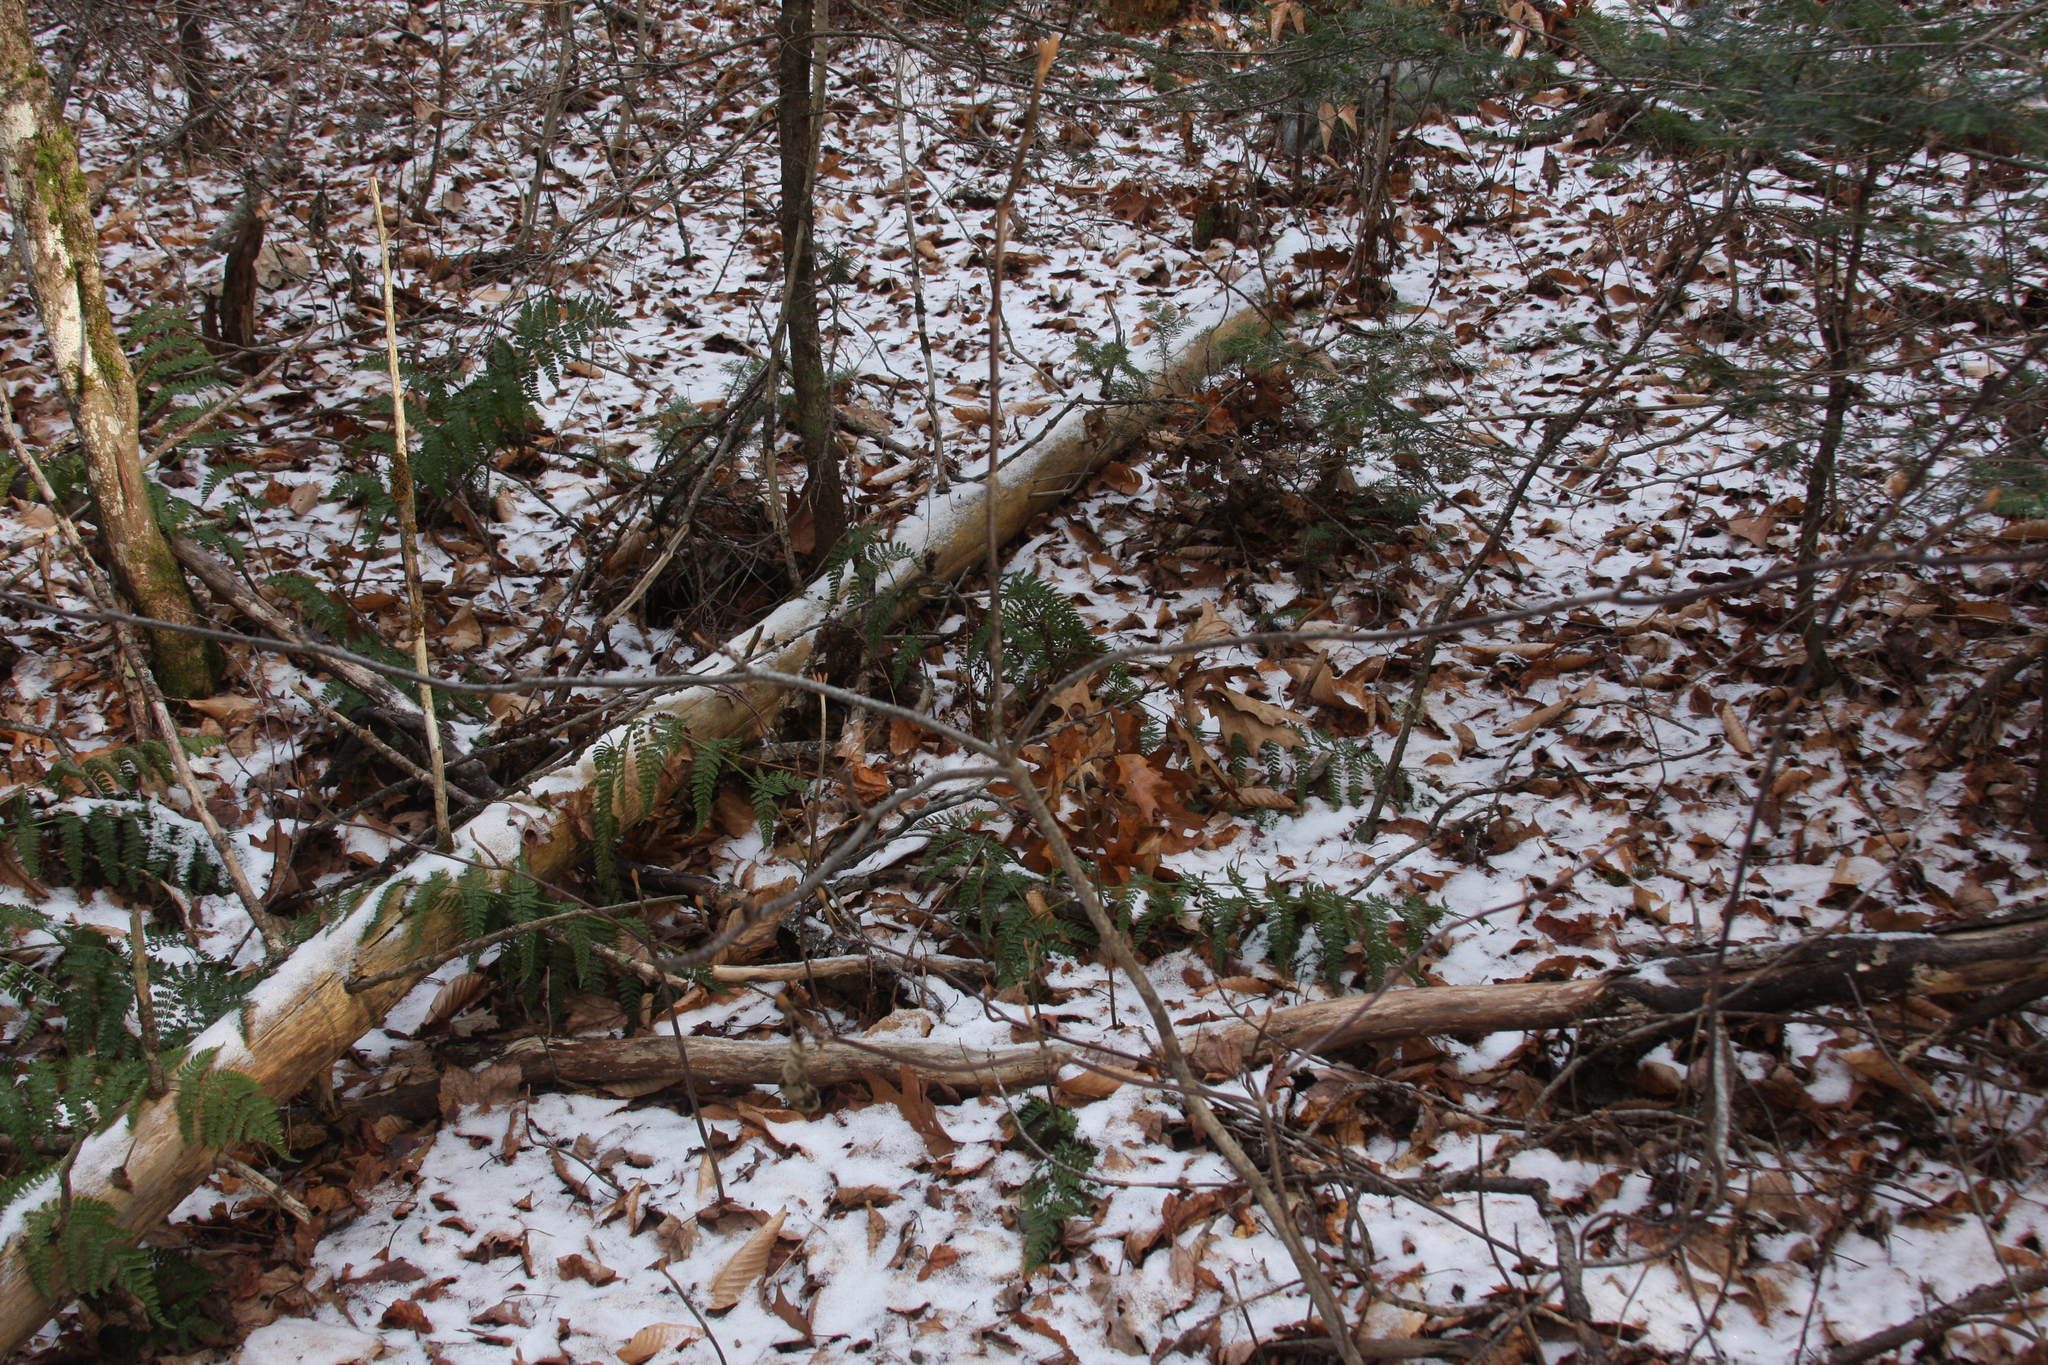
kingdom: Plantae
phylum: Tracheophyta
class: Magnoliopsida
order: Dipsacales
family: Viburnaceae
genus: Viburnum
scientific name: Viburnum lantanoides
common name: Hobblebush
